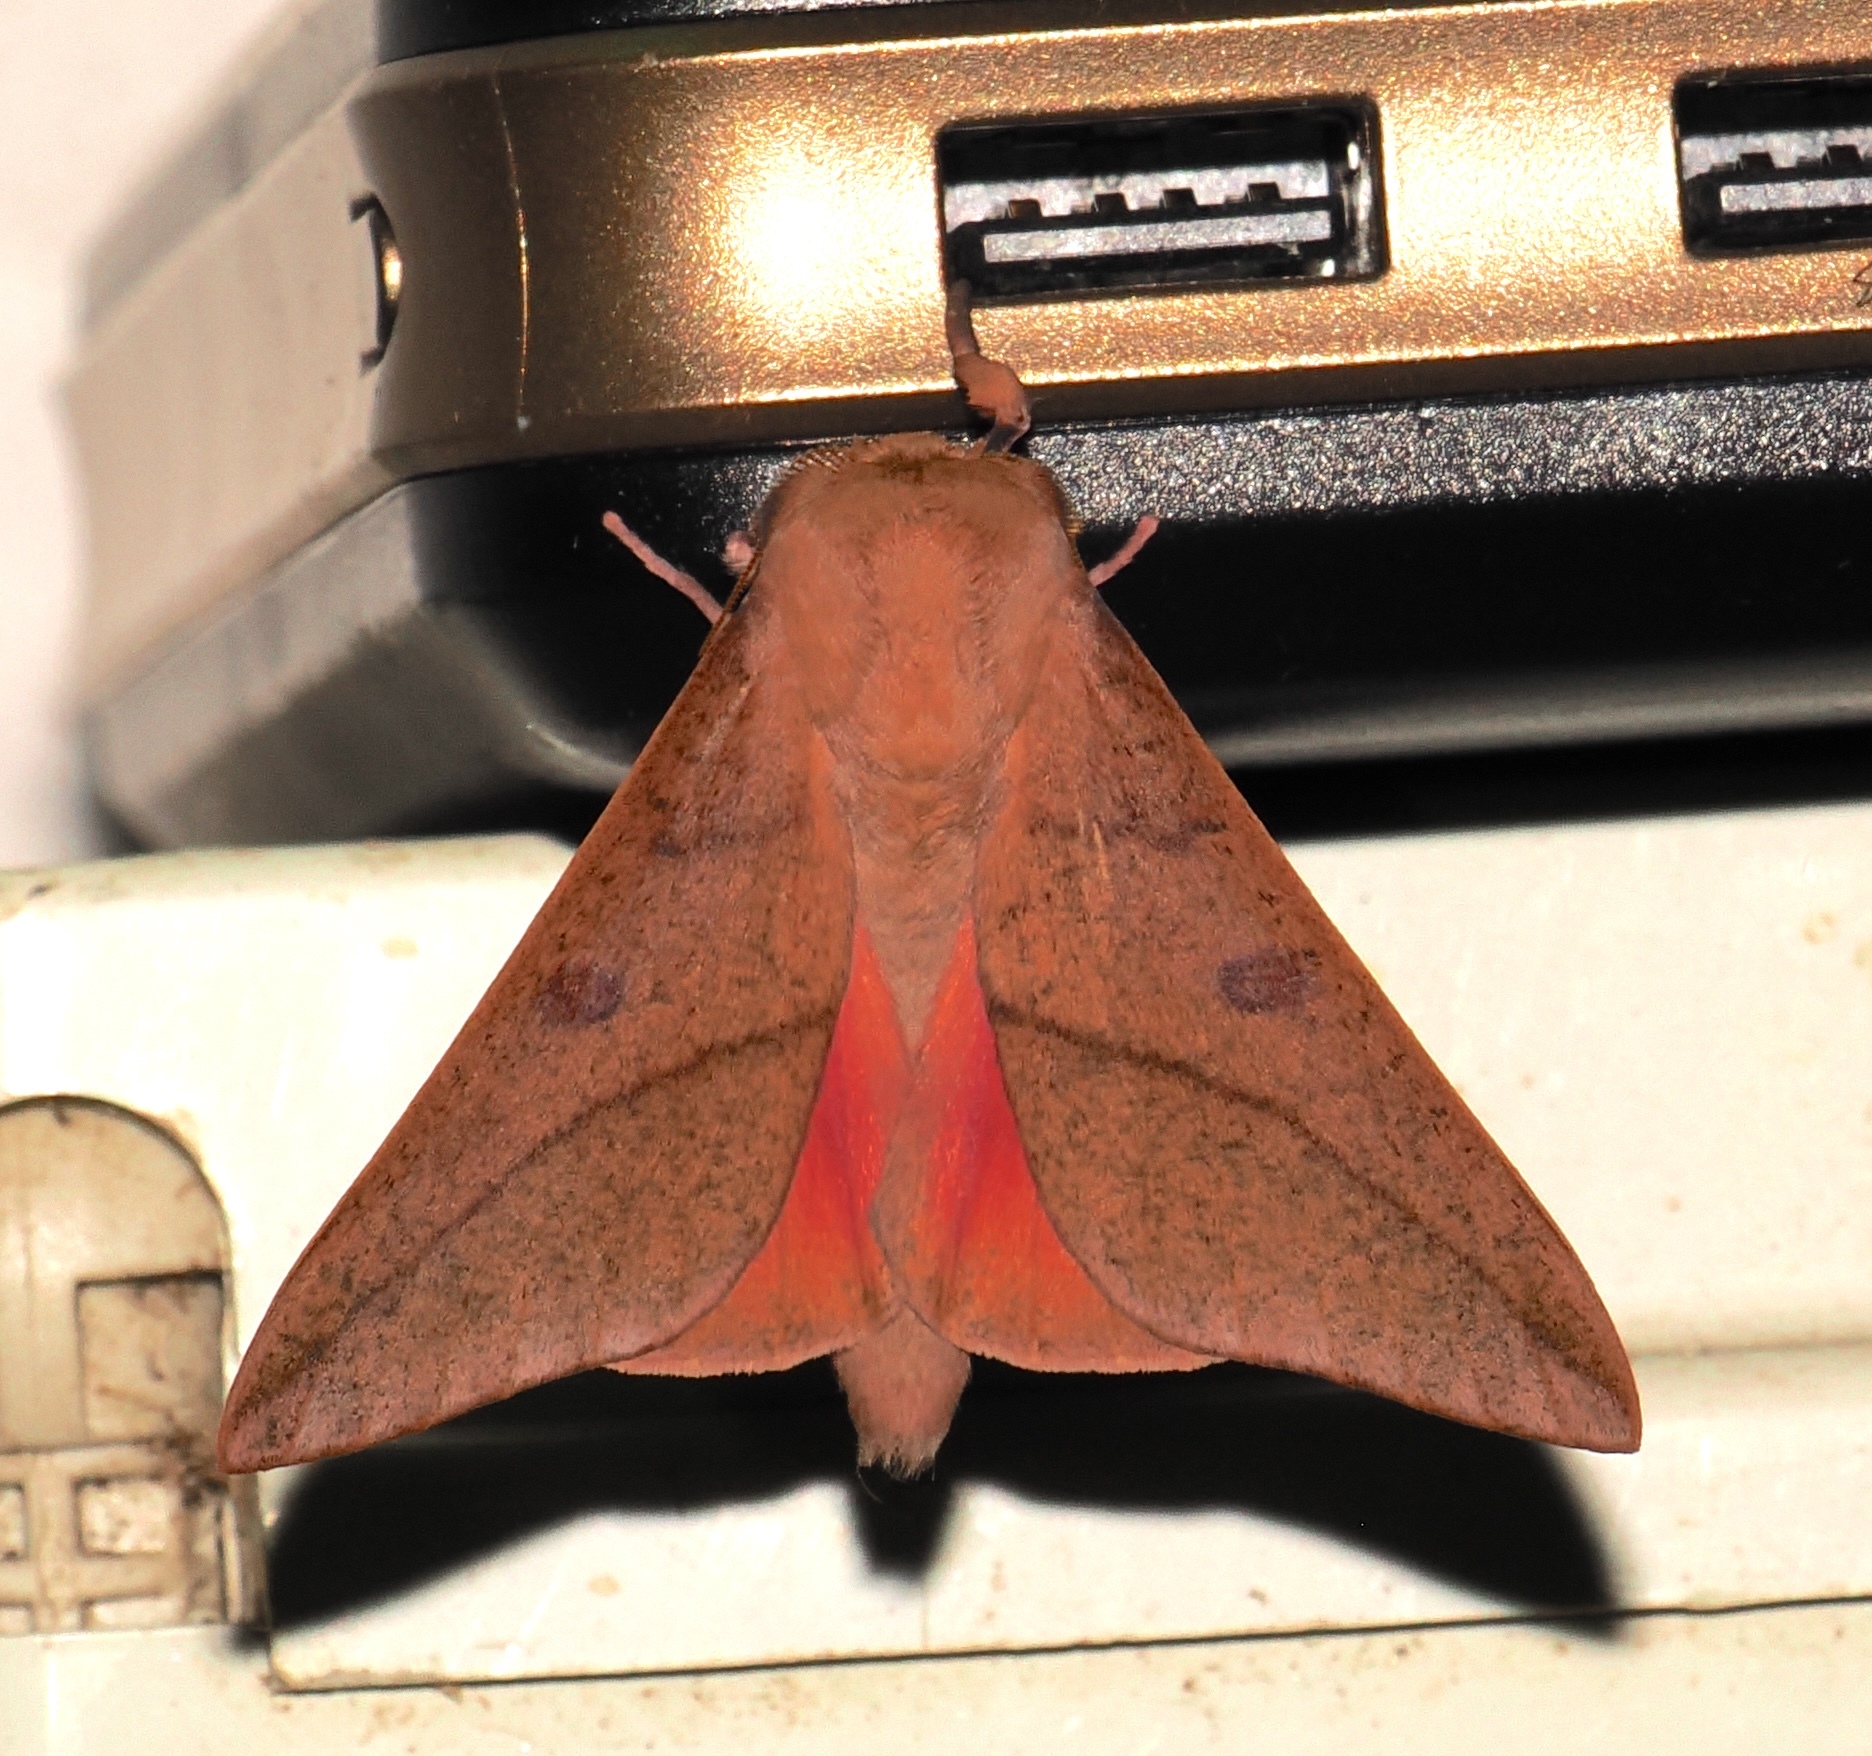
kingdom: Animalia
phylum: Arthropoda
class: Insecta
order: Lepidoptera
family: Saturniidae
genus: Adeloneivaia
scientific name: Adeloneivaia subangulata
